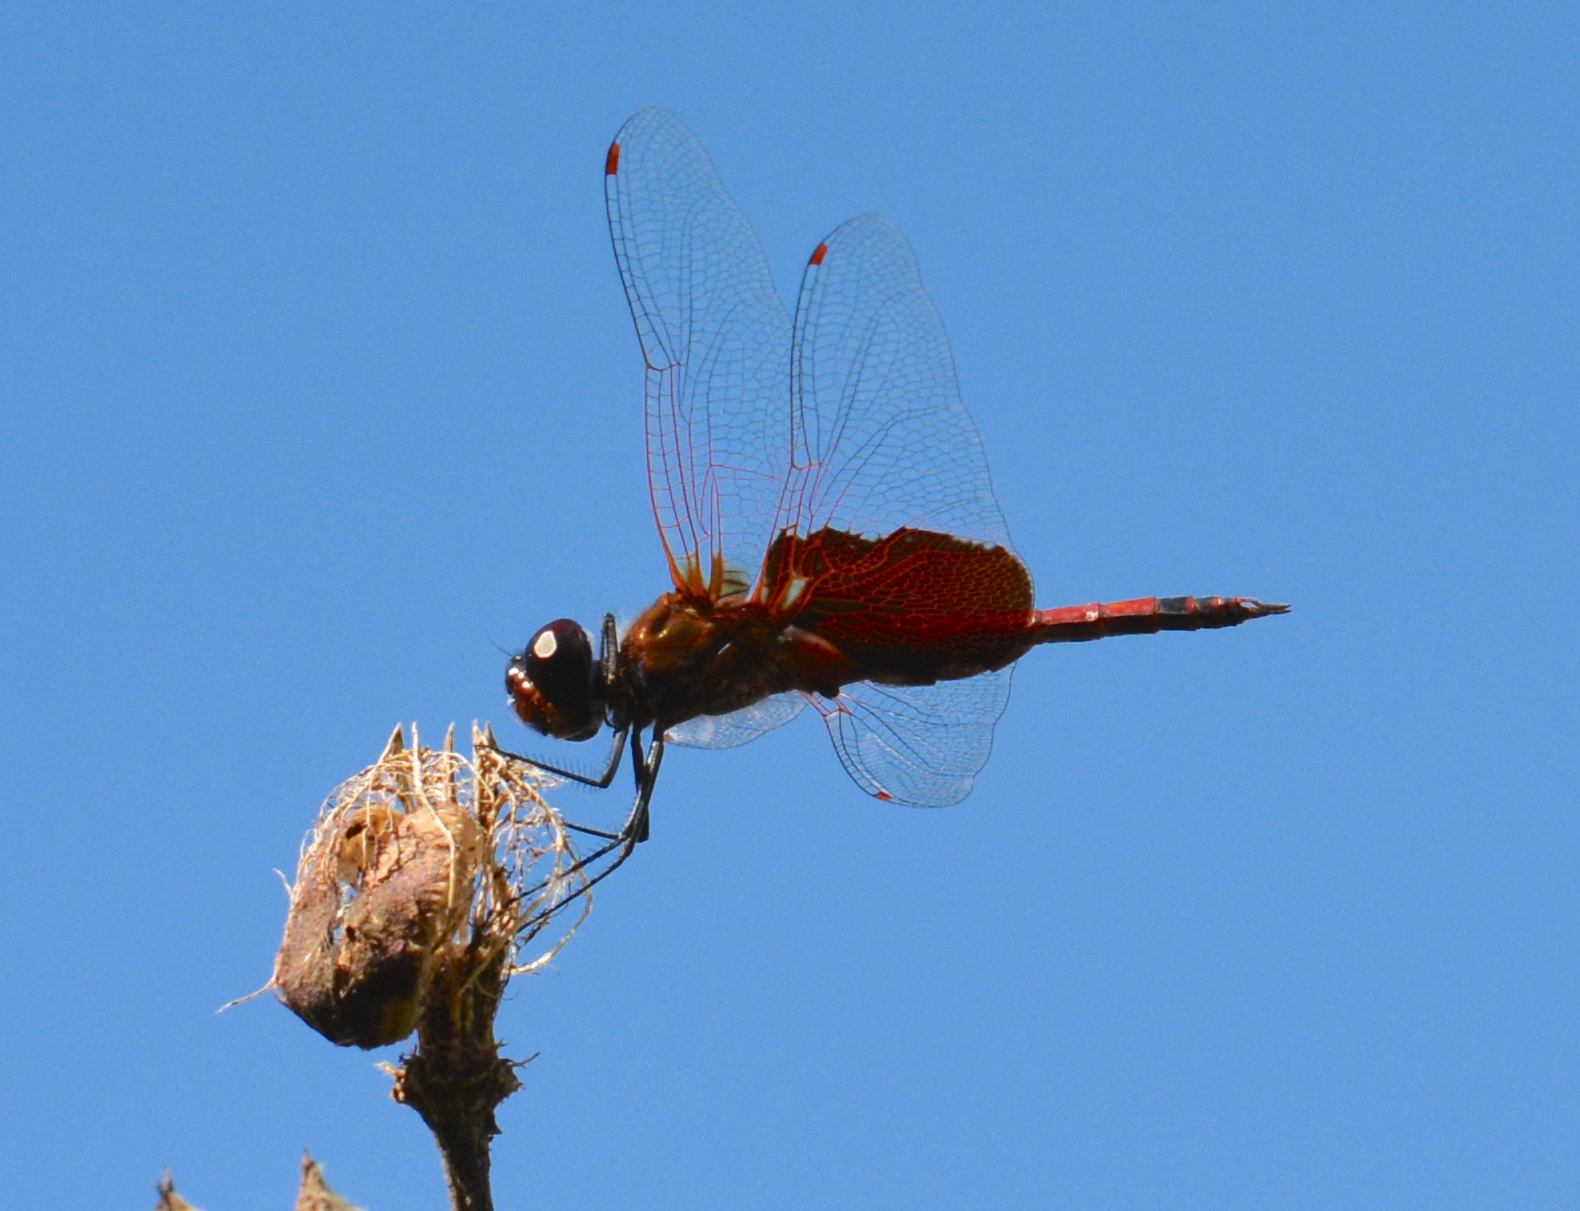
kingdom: Animalia
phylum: Arthropoda
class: Insecta
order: Odonata
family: Libellulidae
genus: Tramea
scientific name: Tramea carolina
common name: Carolina saddlebags
